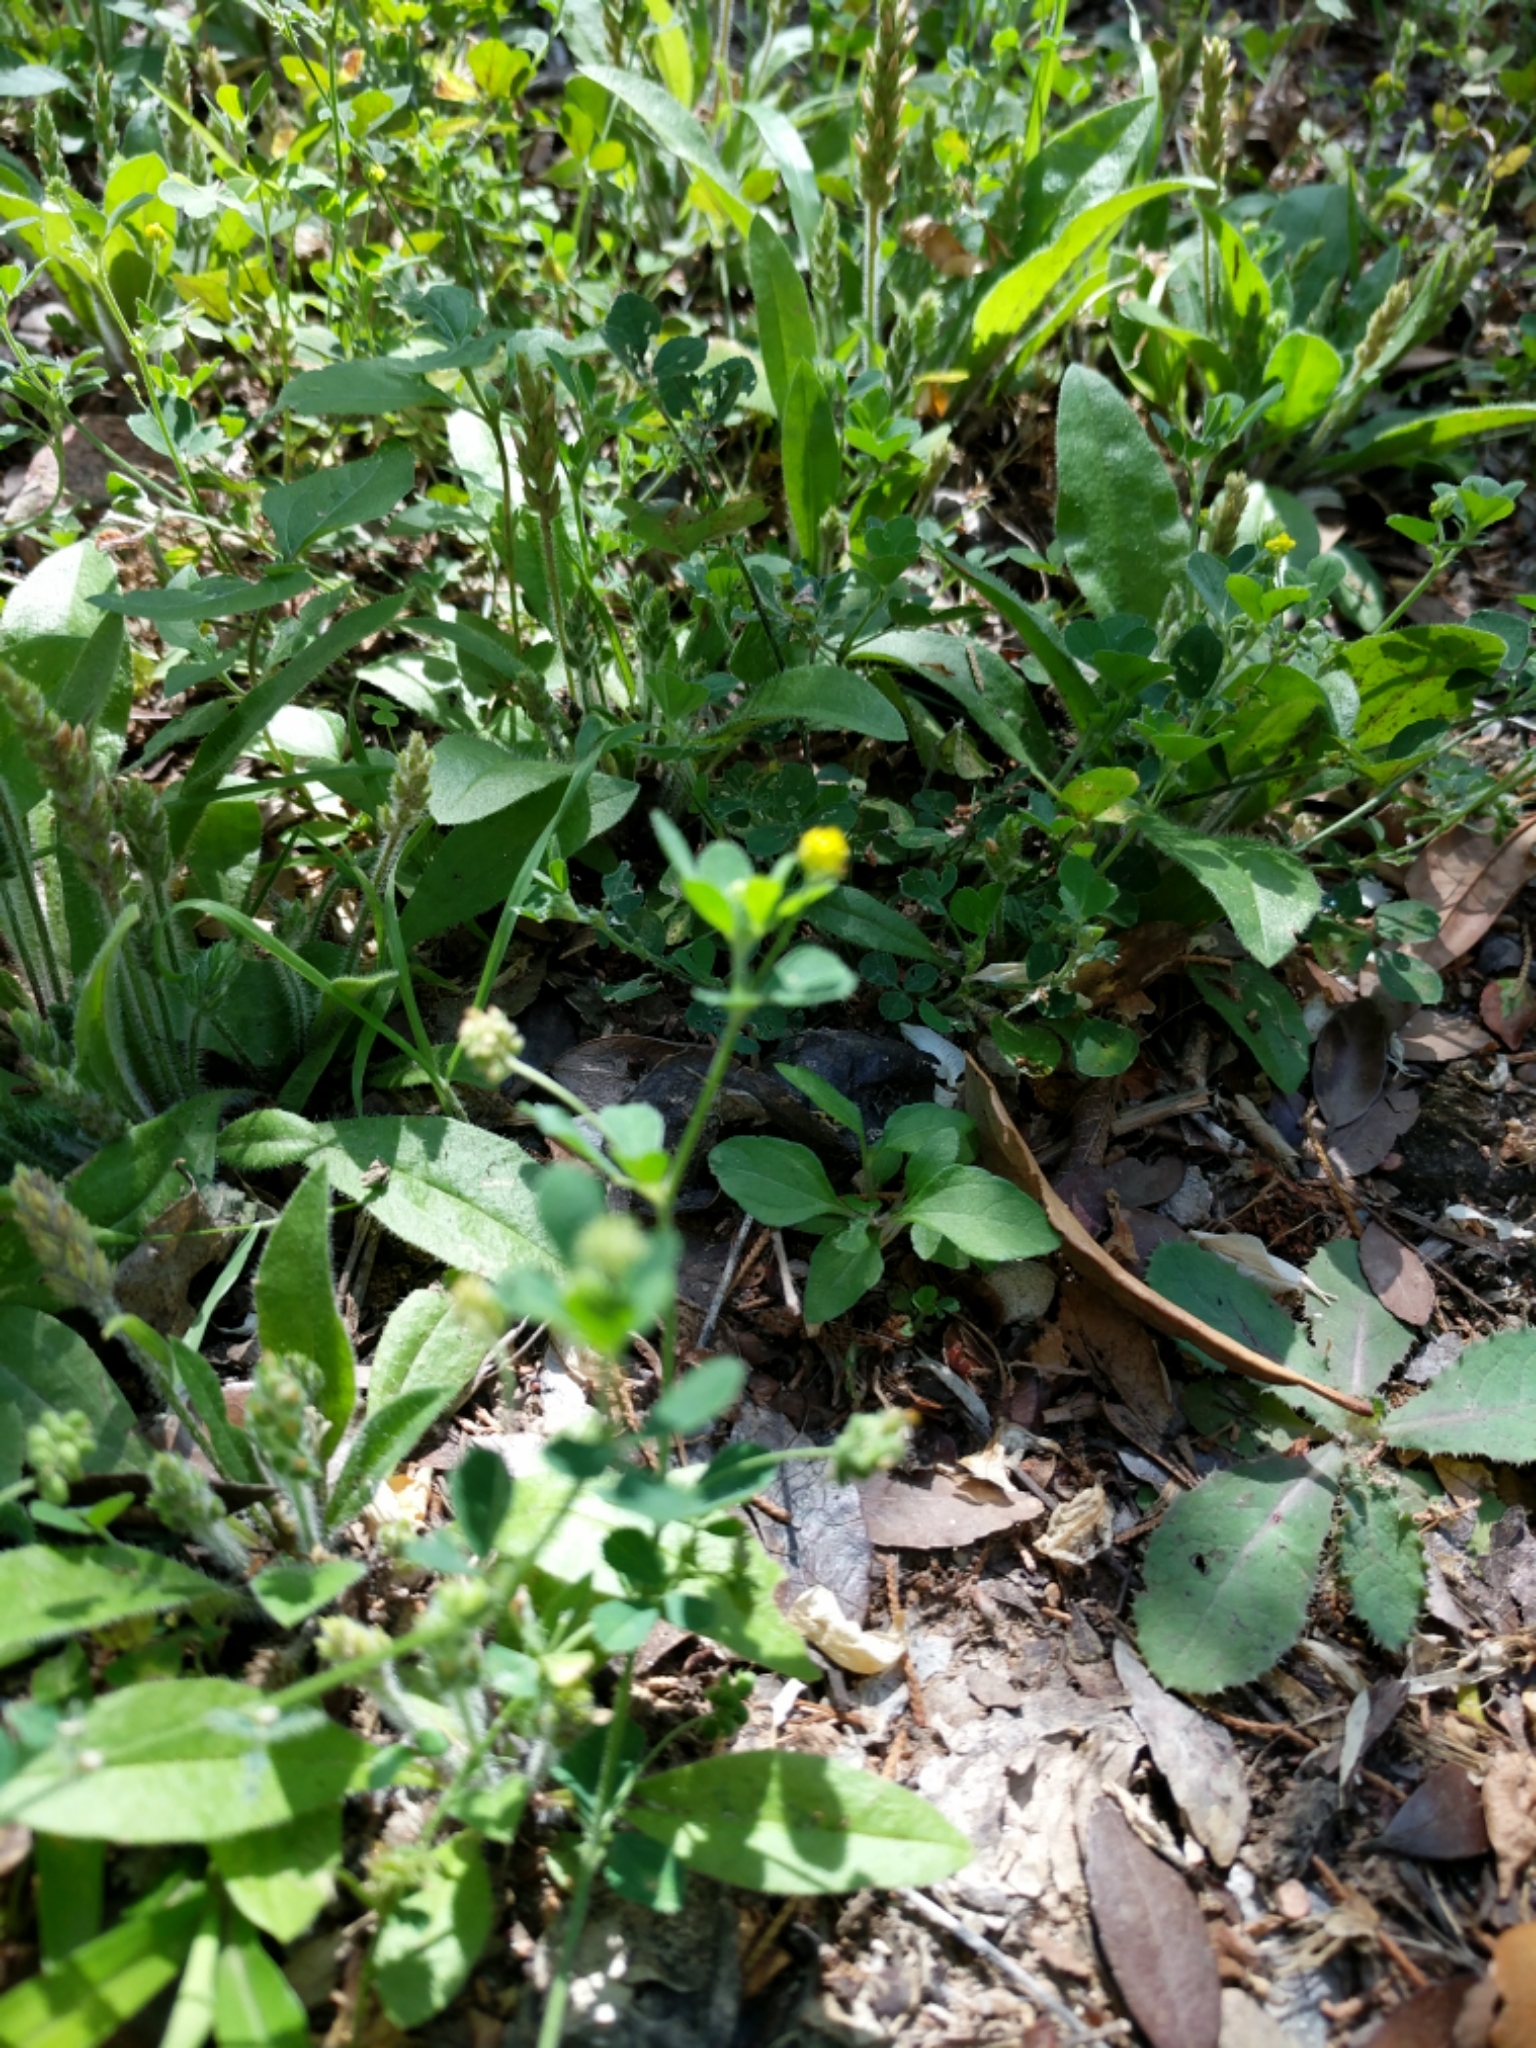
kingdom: Plantae
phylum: Tracheophyta
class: Magnoliopsida
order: Fabales
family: Fabaceae
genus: Medicago
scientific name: Medicago lupulina
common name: Black medick
